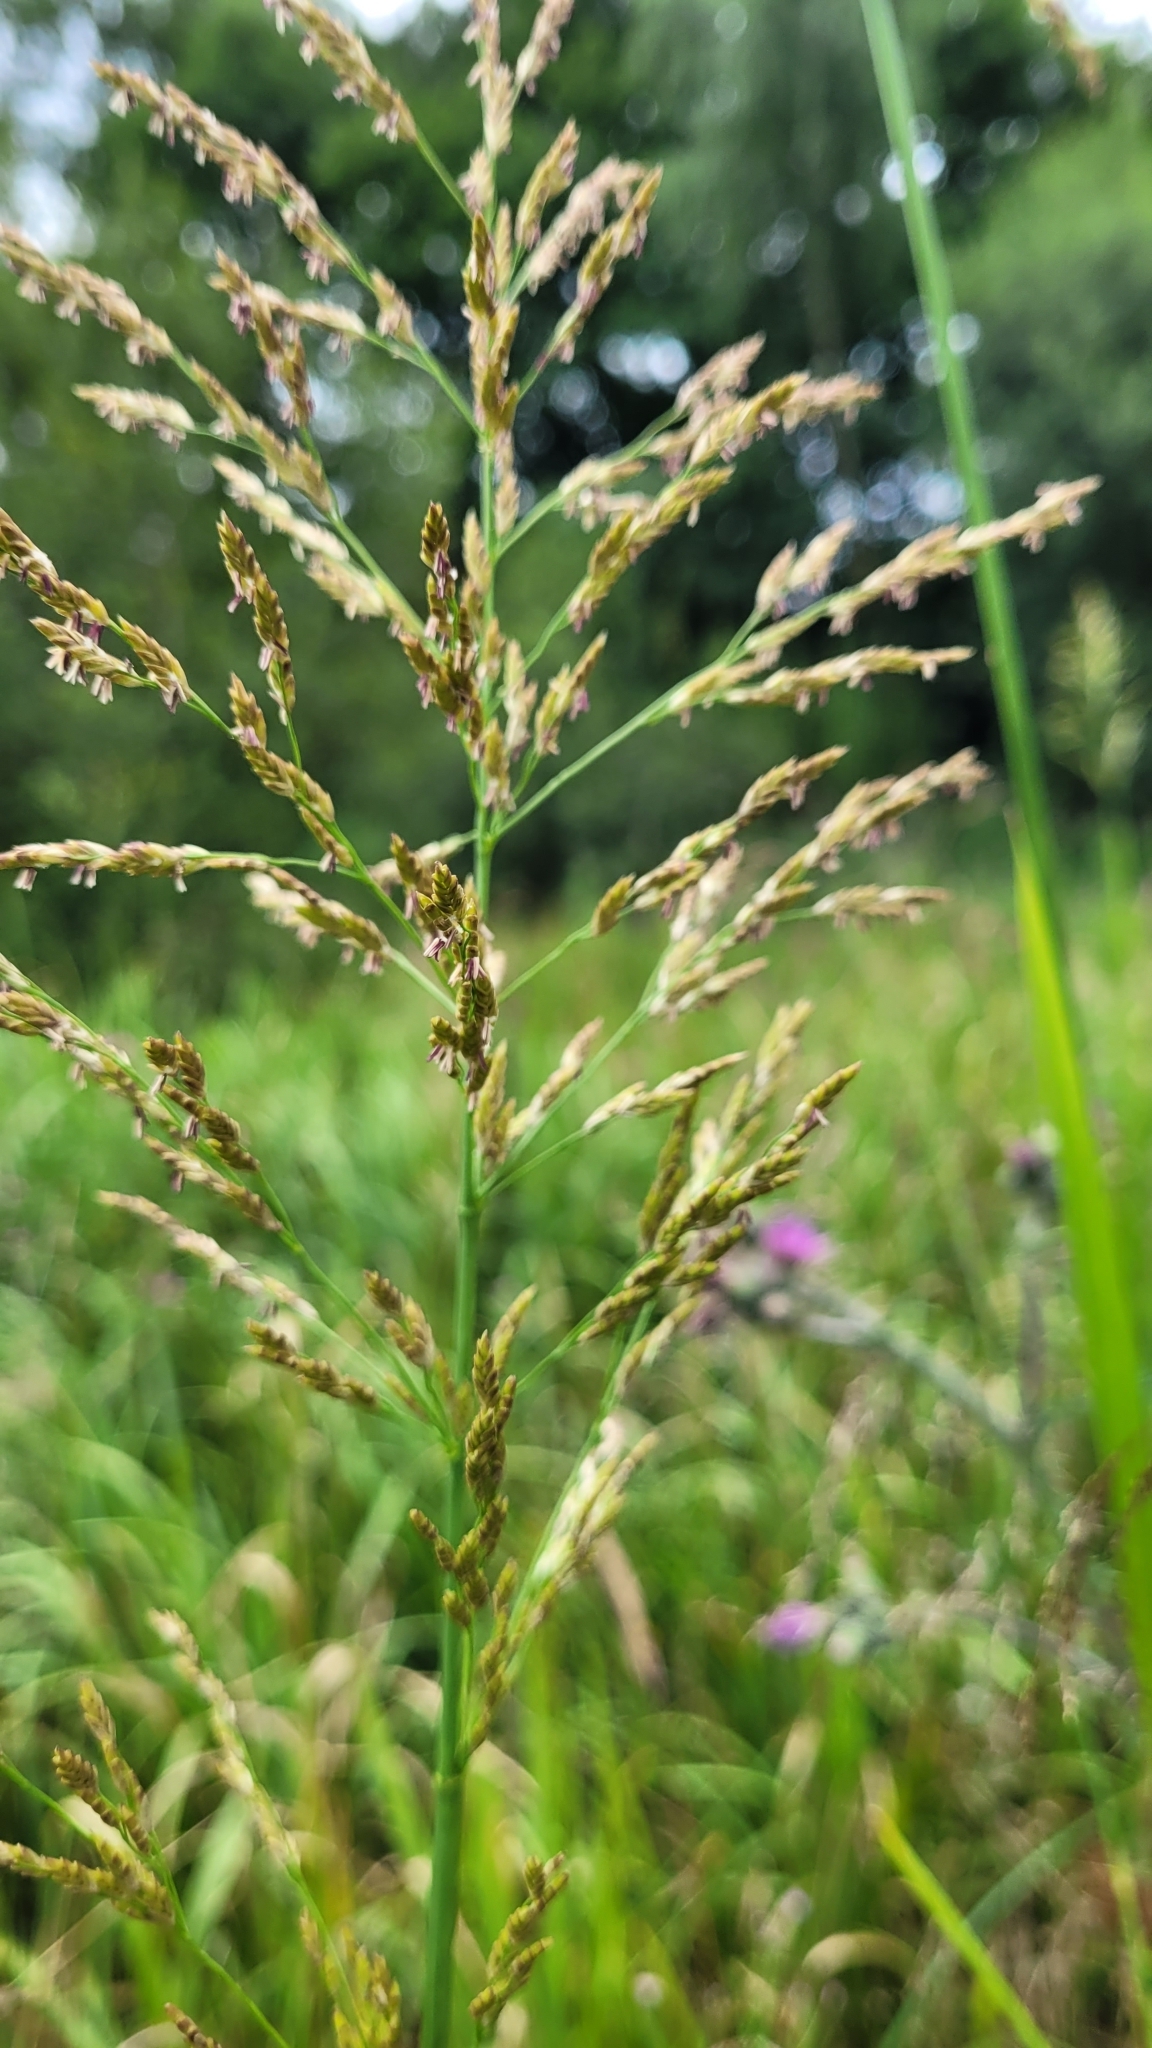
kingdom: Plantae
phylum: Tracheophyta
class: Liliopsida
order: Poales
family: Poaceae
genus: Glyceria
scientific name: Glyceria maxima
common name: Reed mannagrass
